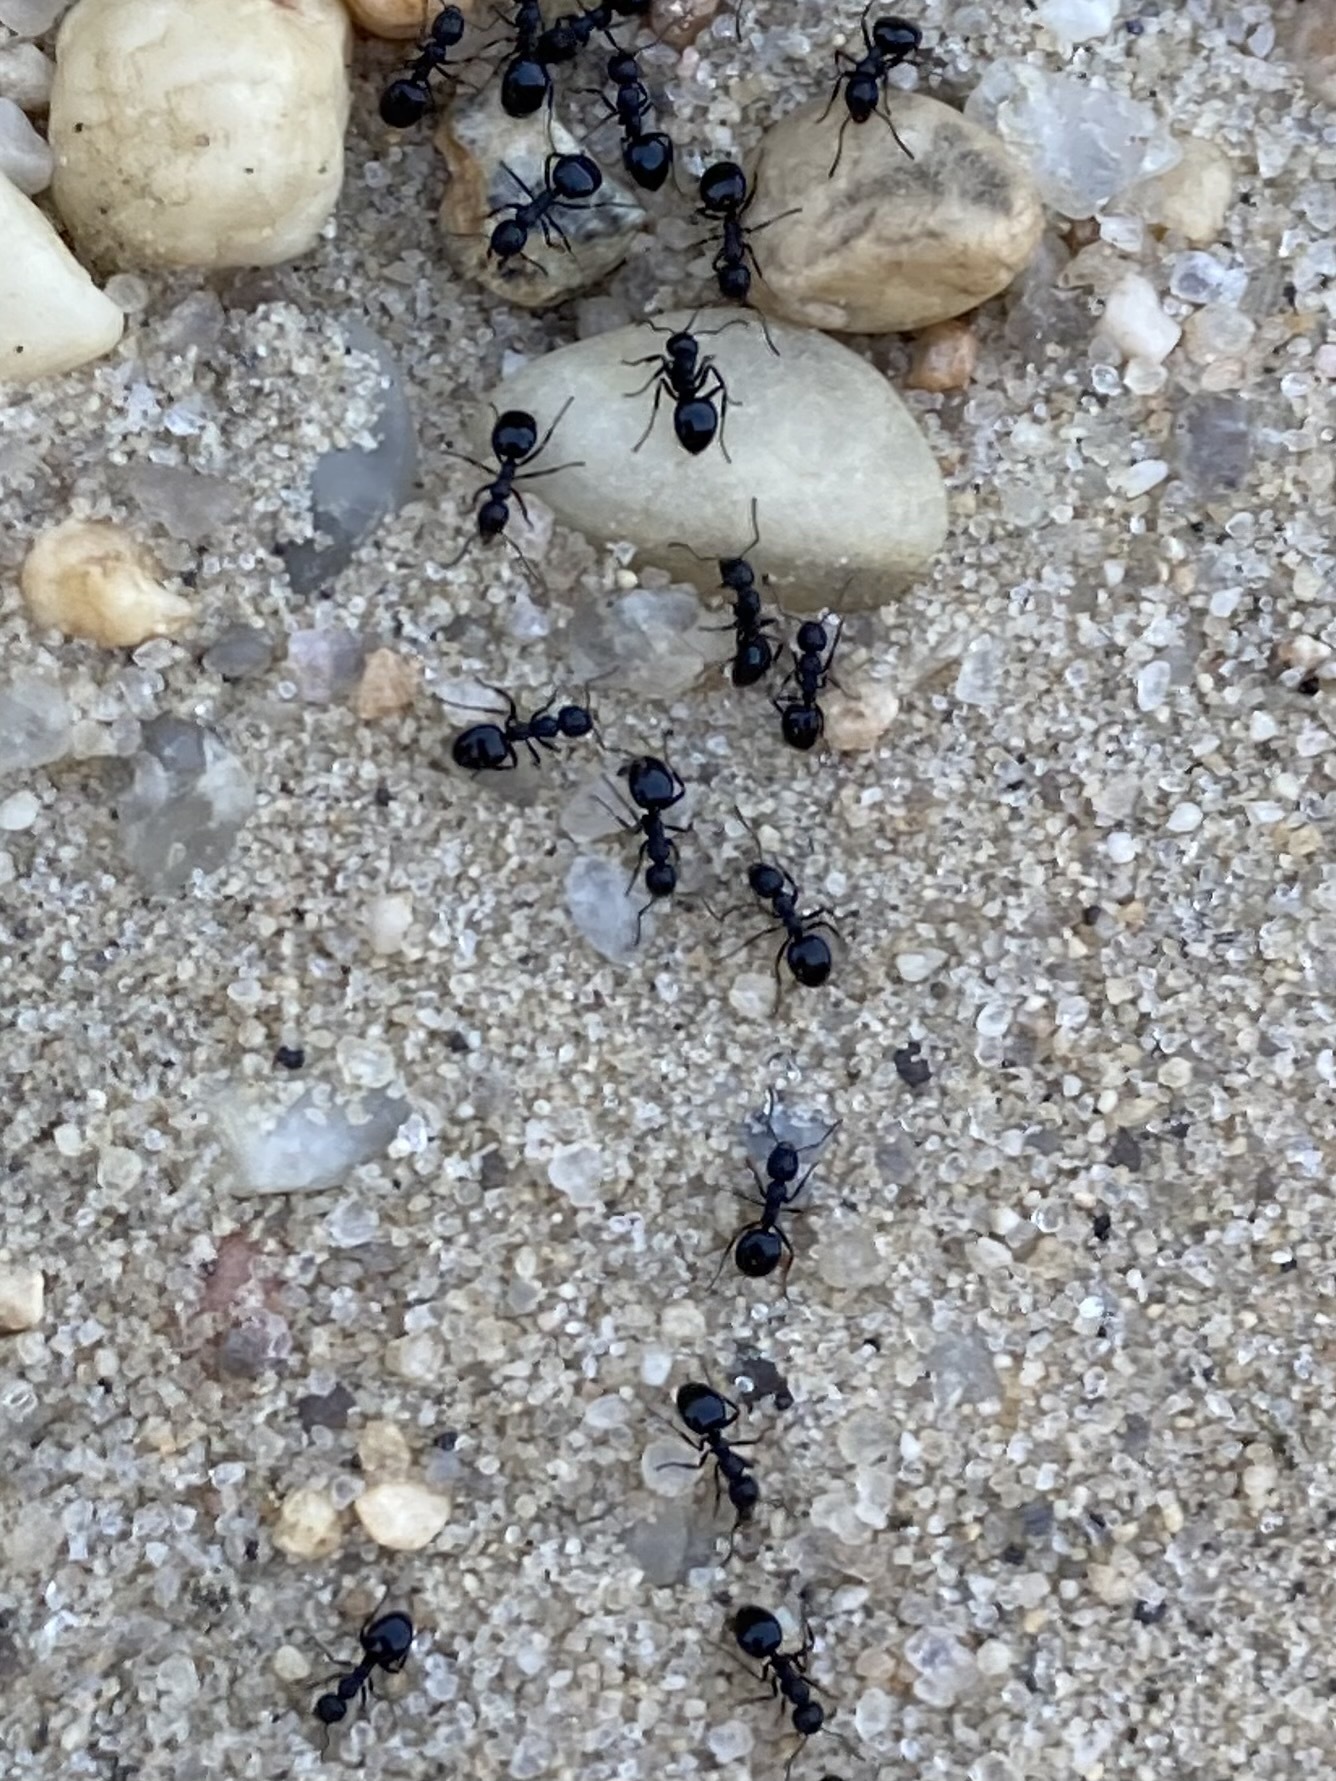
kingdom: Animalia
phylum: Arthropoda
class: Insecta
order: Hymenoptera
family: Formicidae
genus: Dolichoderus
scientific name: Dolichoderus taschenbergi
